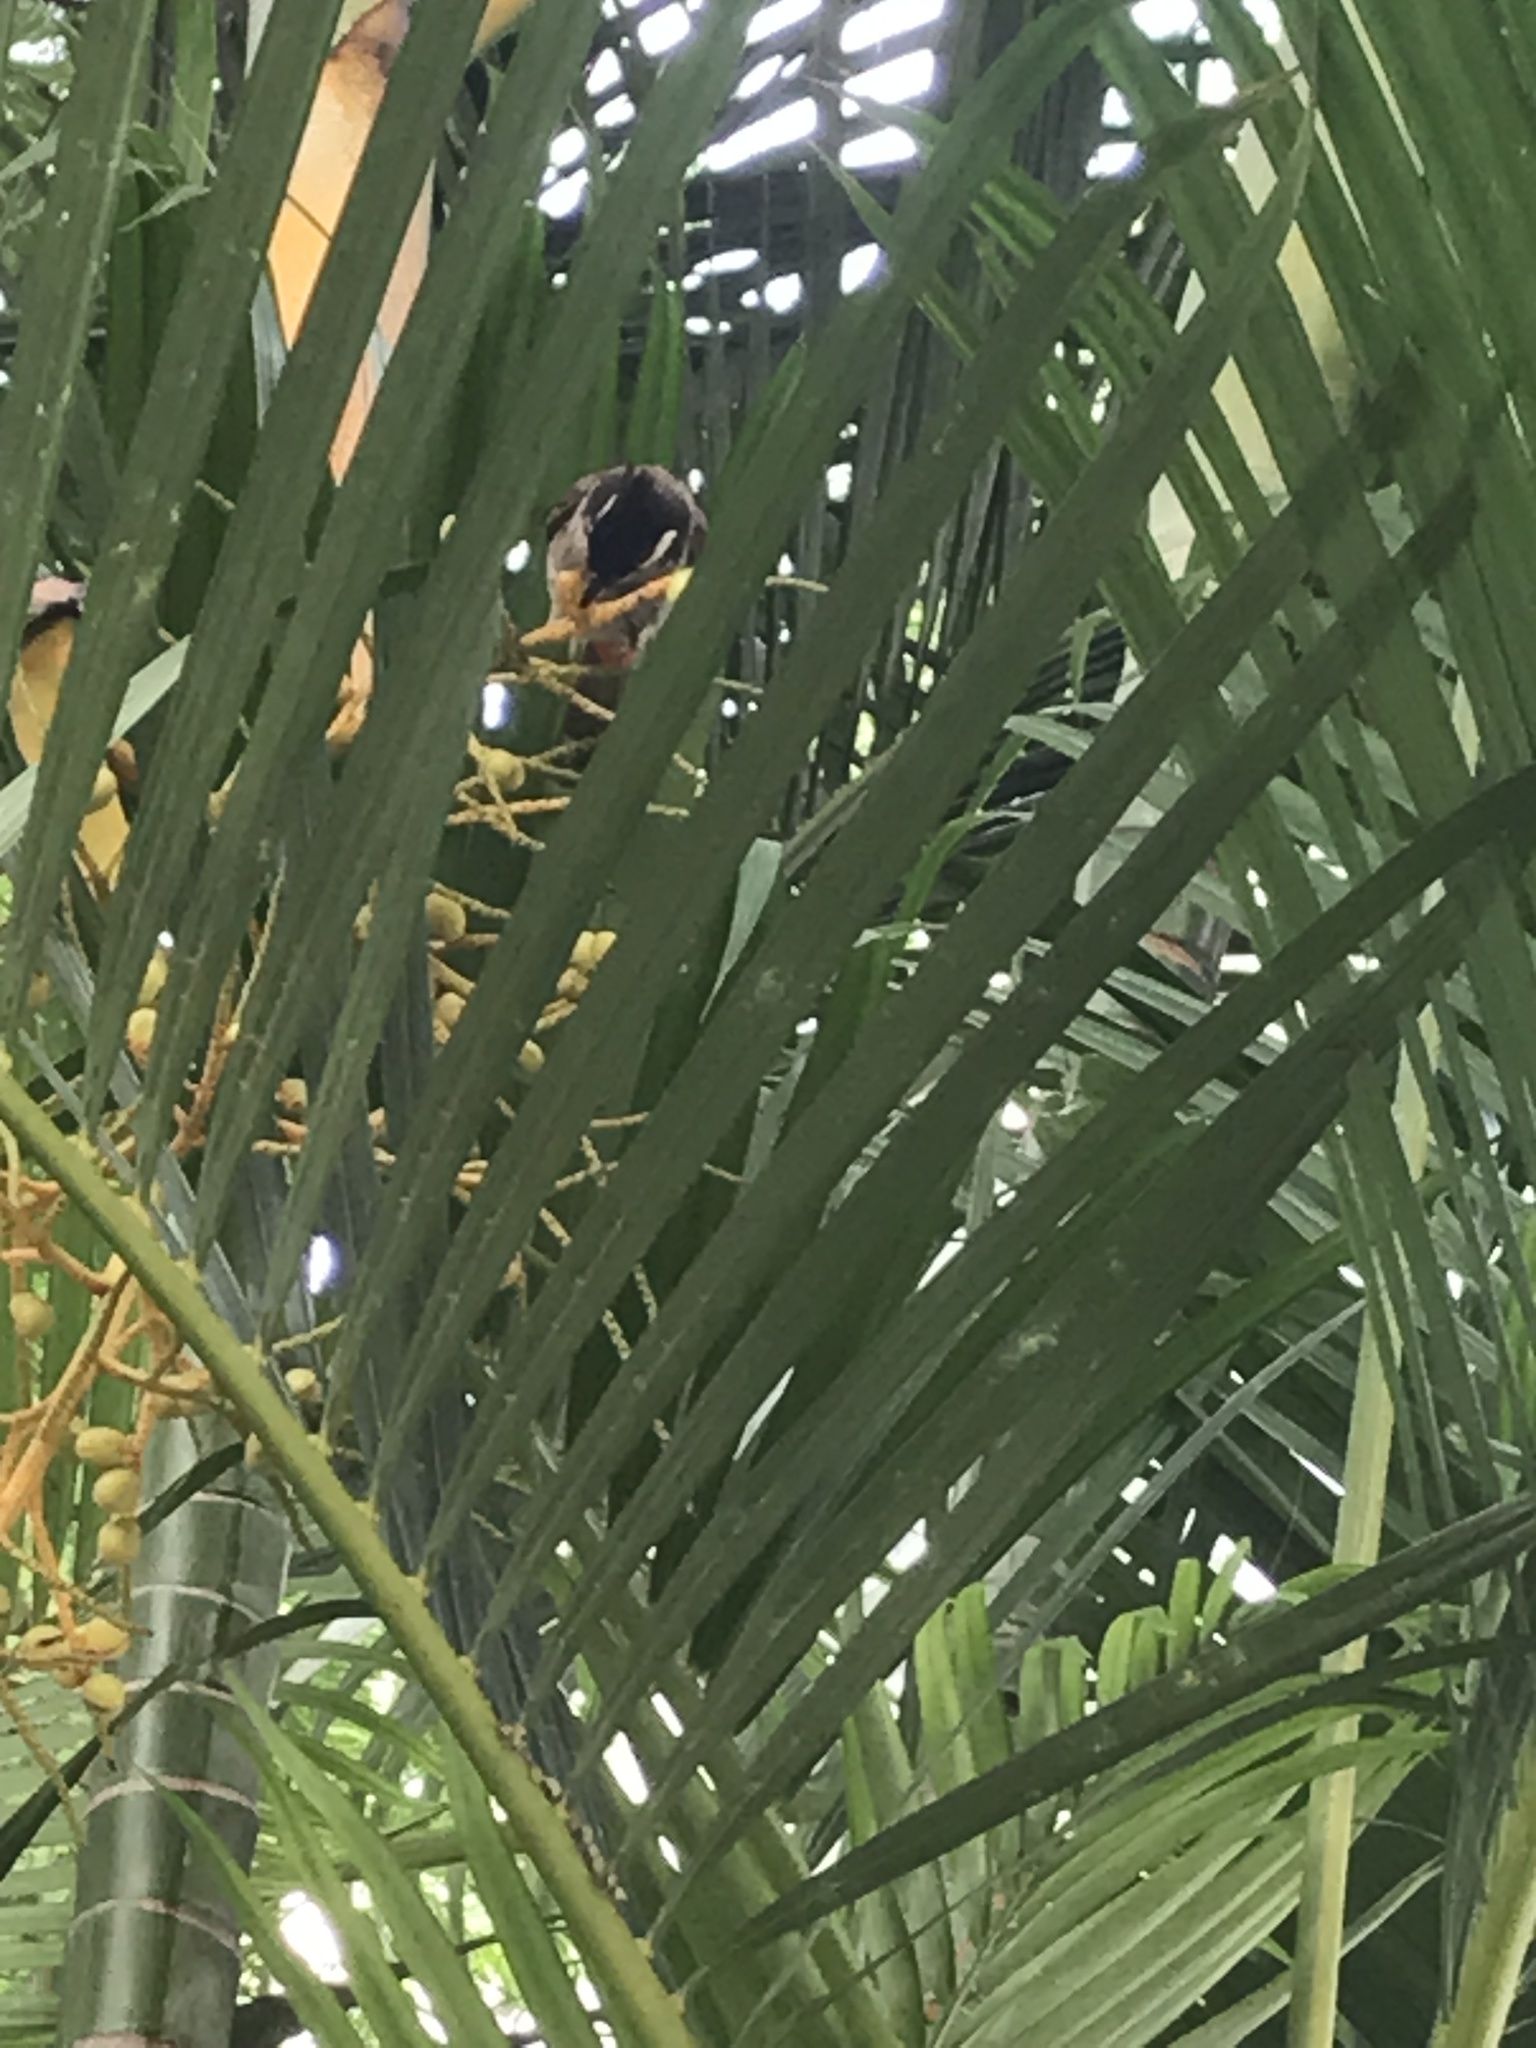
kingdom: Animalia
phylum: Chordata
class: Aves
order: Passeriformes
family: Pycnonotidae
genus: Pycnonotus
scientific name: Pycnonotus jocosus
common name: Red-whiskered bulbul
